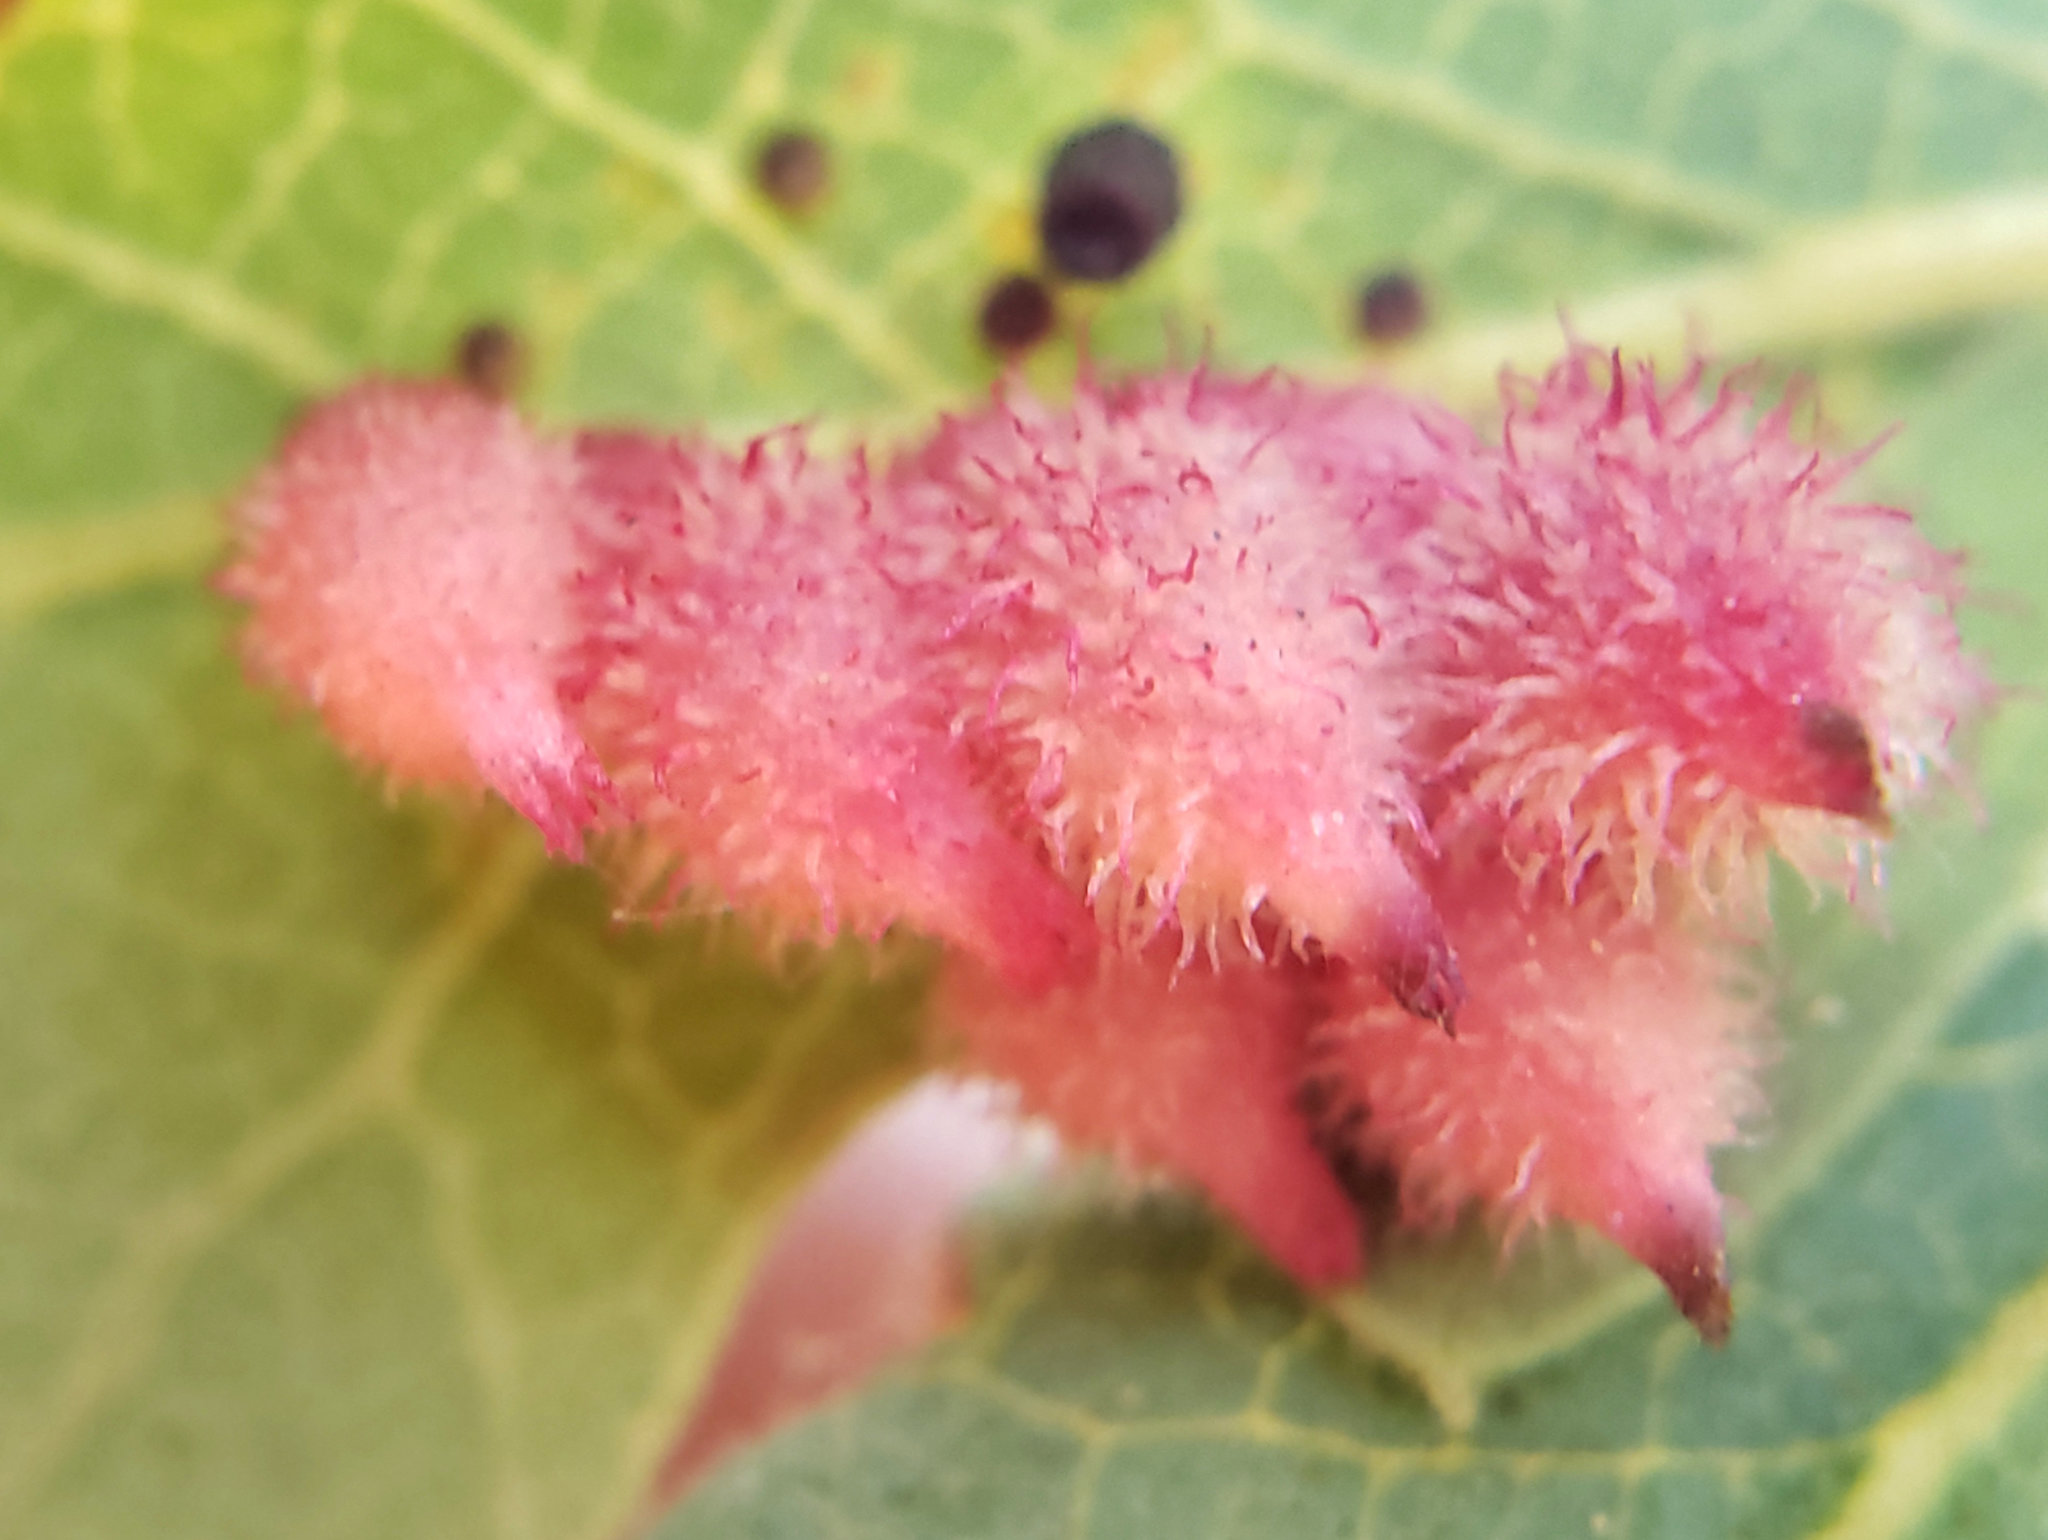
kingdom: Animalia
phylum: Arthropoda
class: Insecta
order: Hymenoptera
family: Cynipidae
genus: Andricus
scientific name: Andricus
